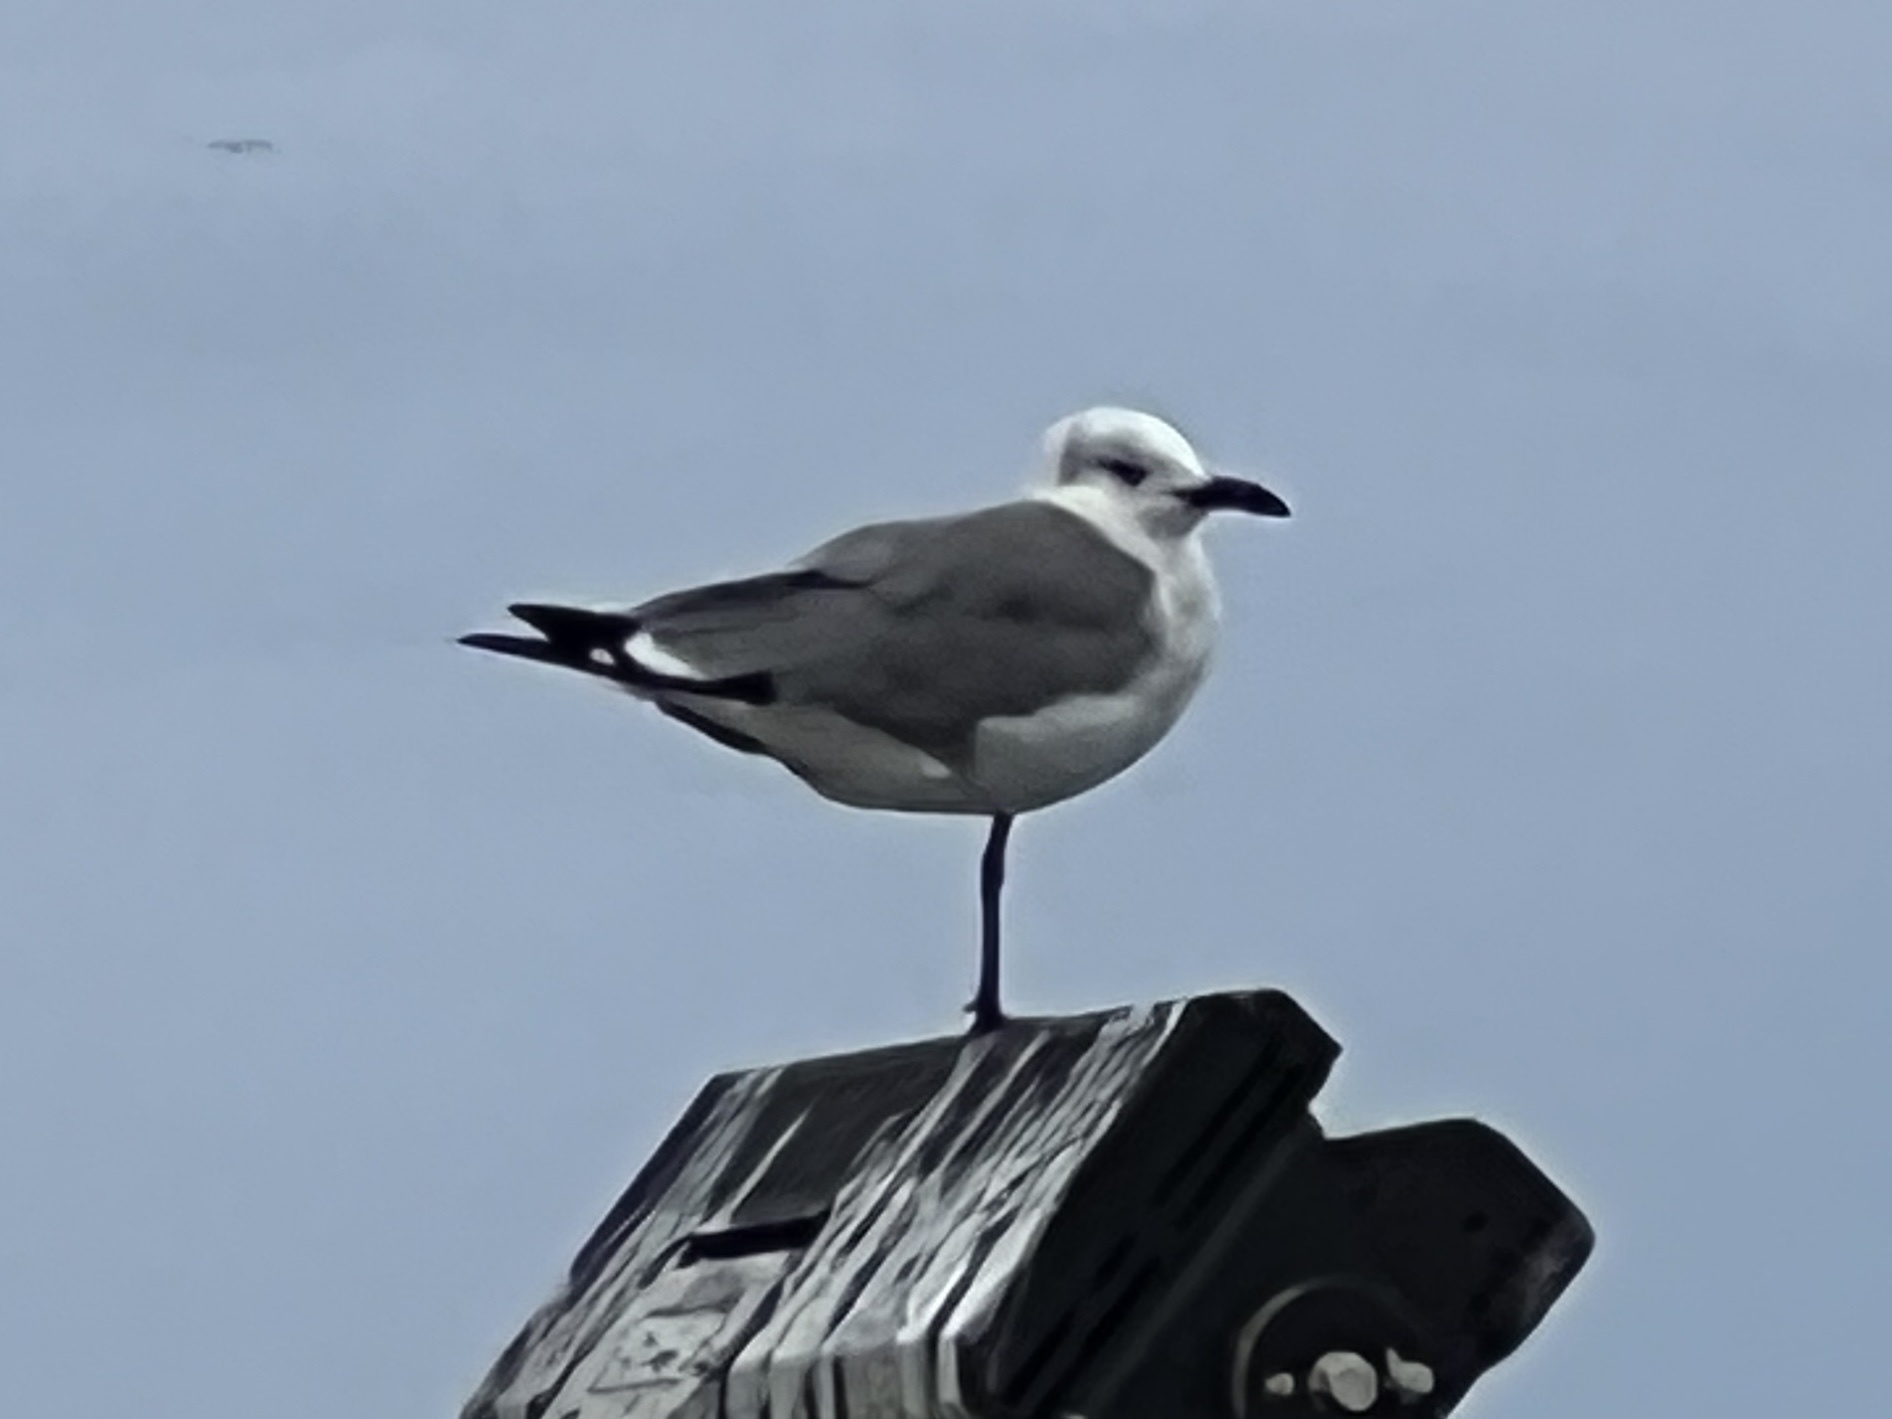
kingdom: Animalia
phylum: Chordata
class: Aves
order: Charadriiformes
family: Laridae
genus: Leucophaeus
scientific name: Leucophaeus atricilla
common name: Laughing gull
